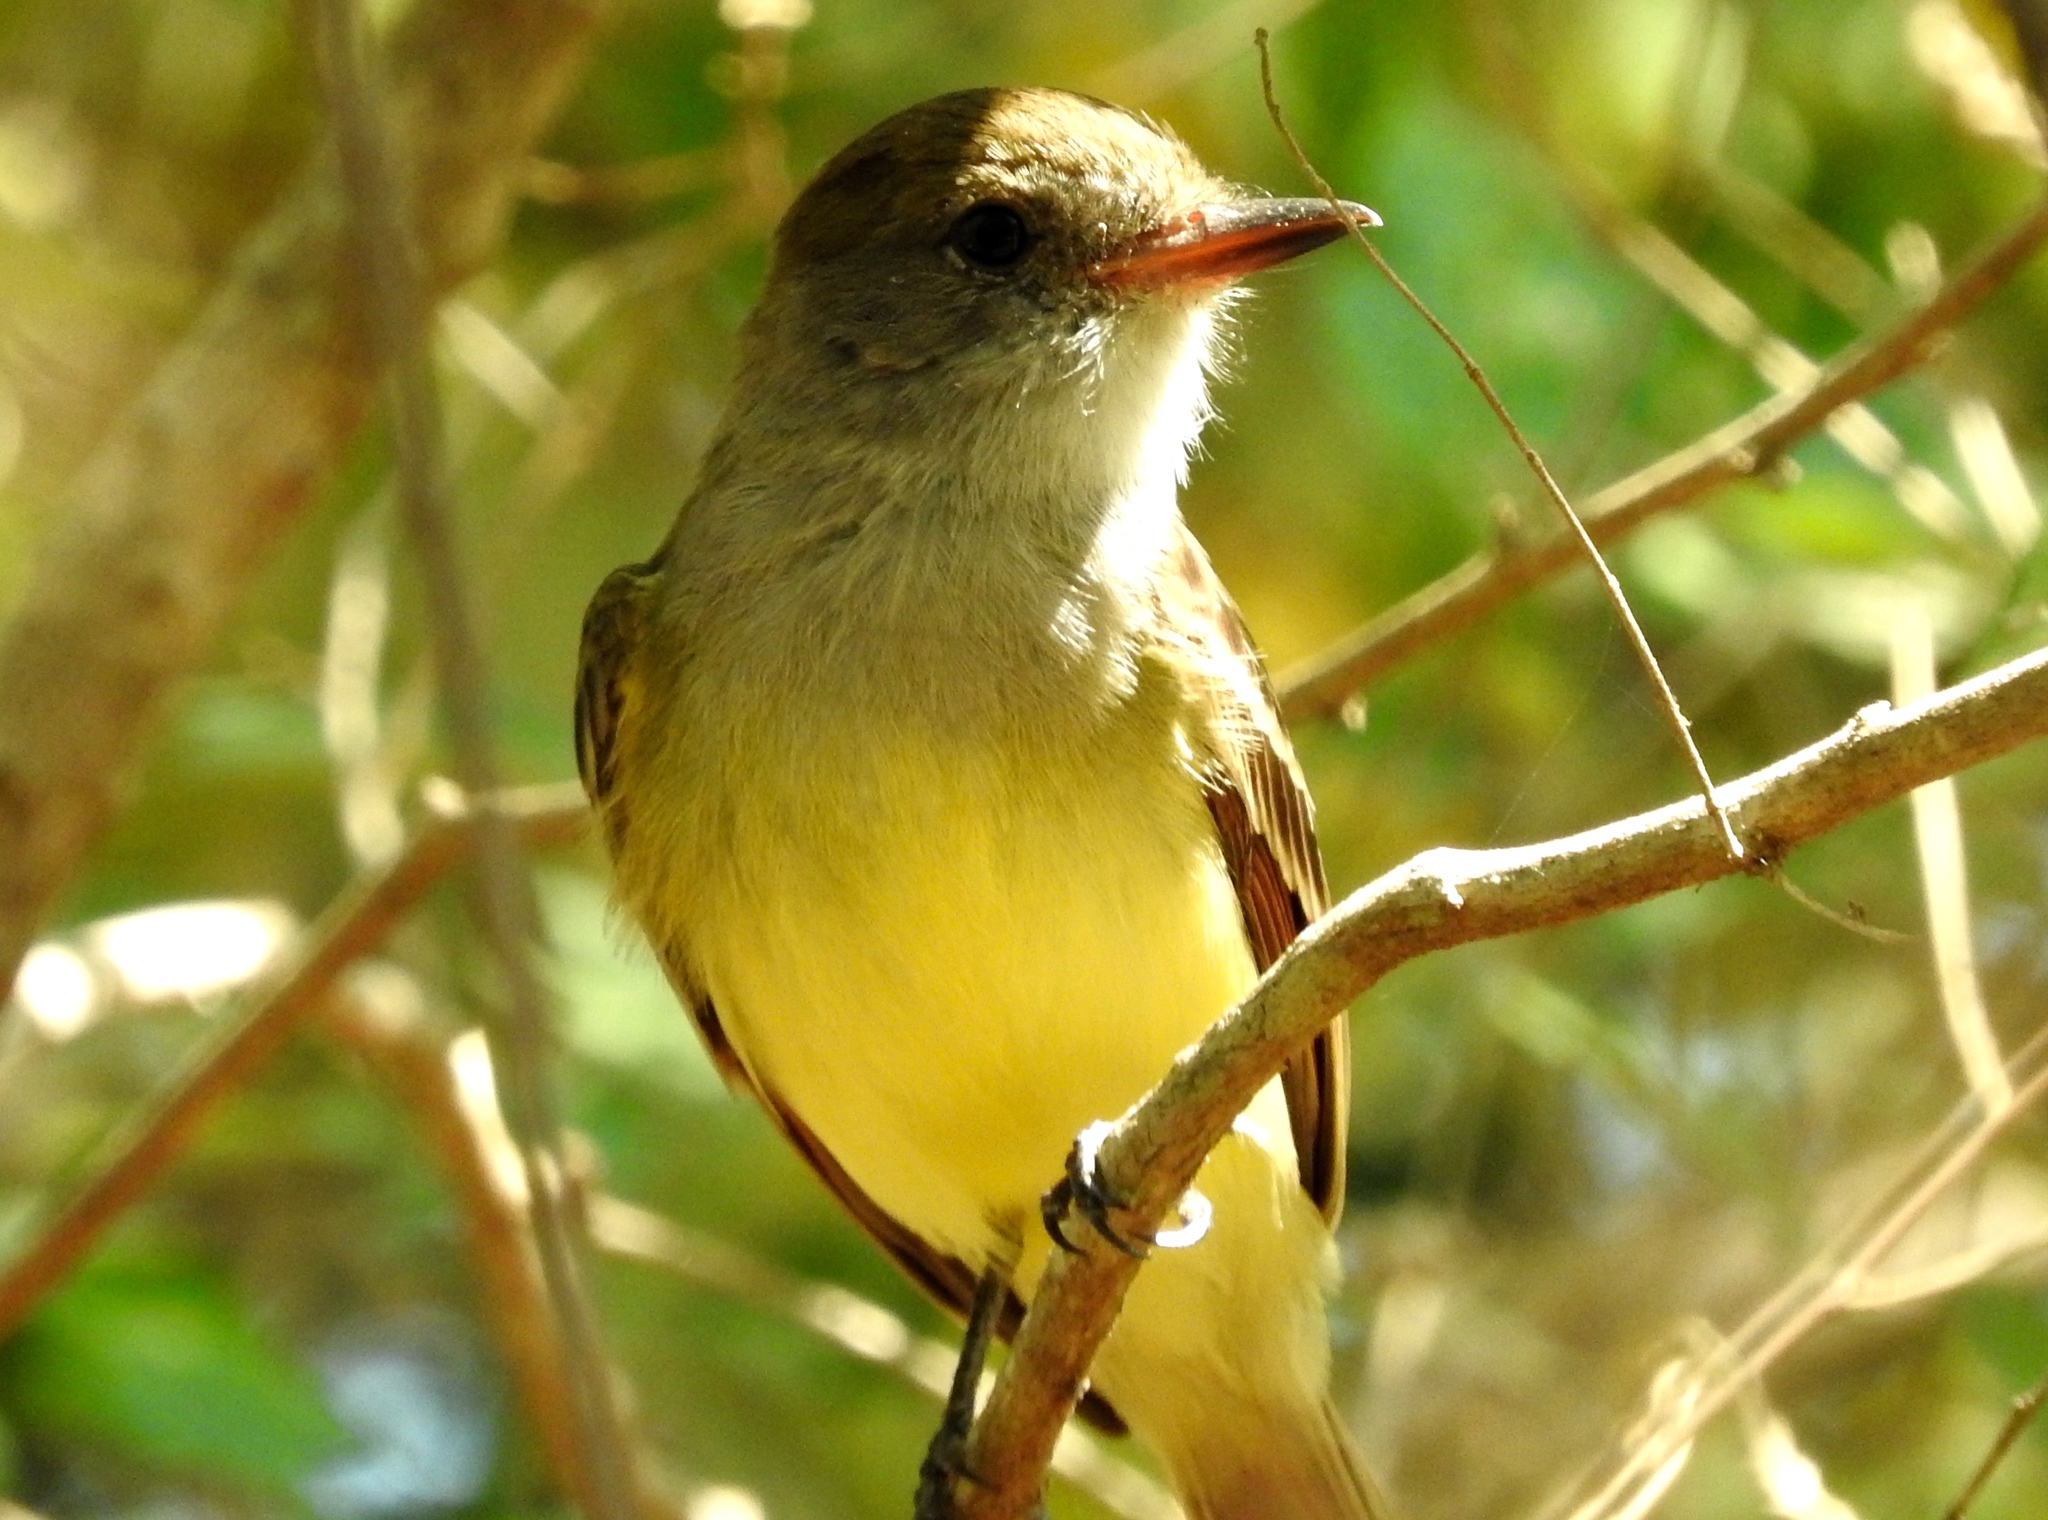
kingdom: Animalia
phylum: Chordata
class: Aves
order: Passeriformes
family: Tyrannidae
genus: Myiarchus
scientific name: Myiarchus
